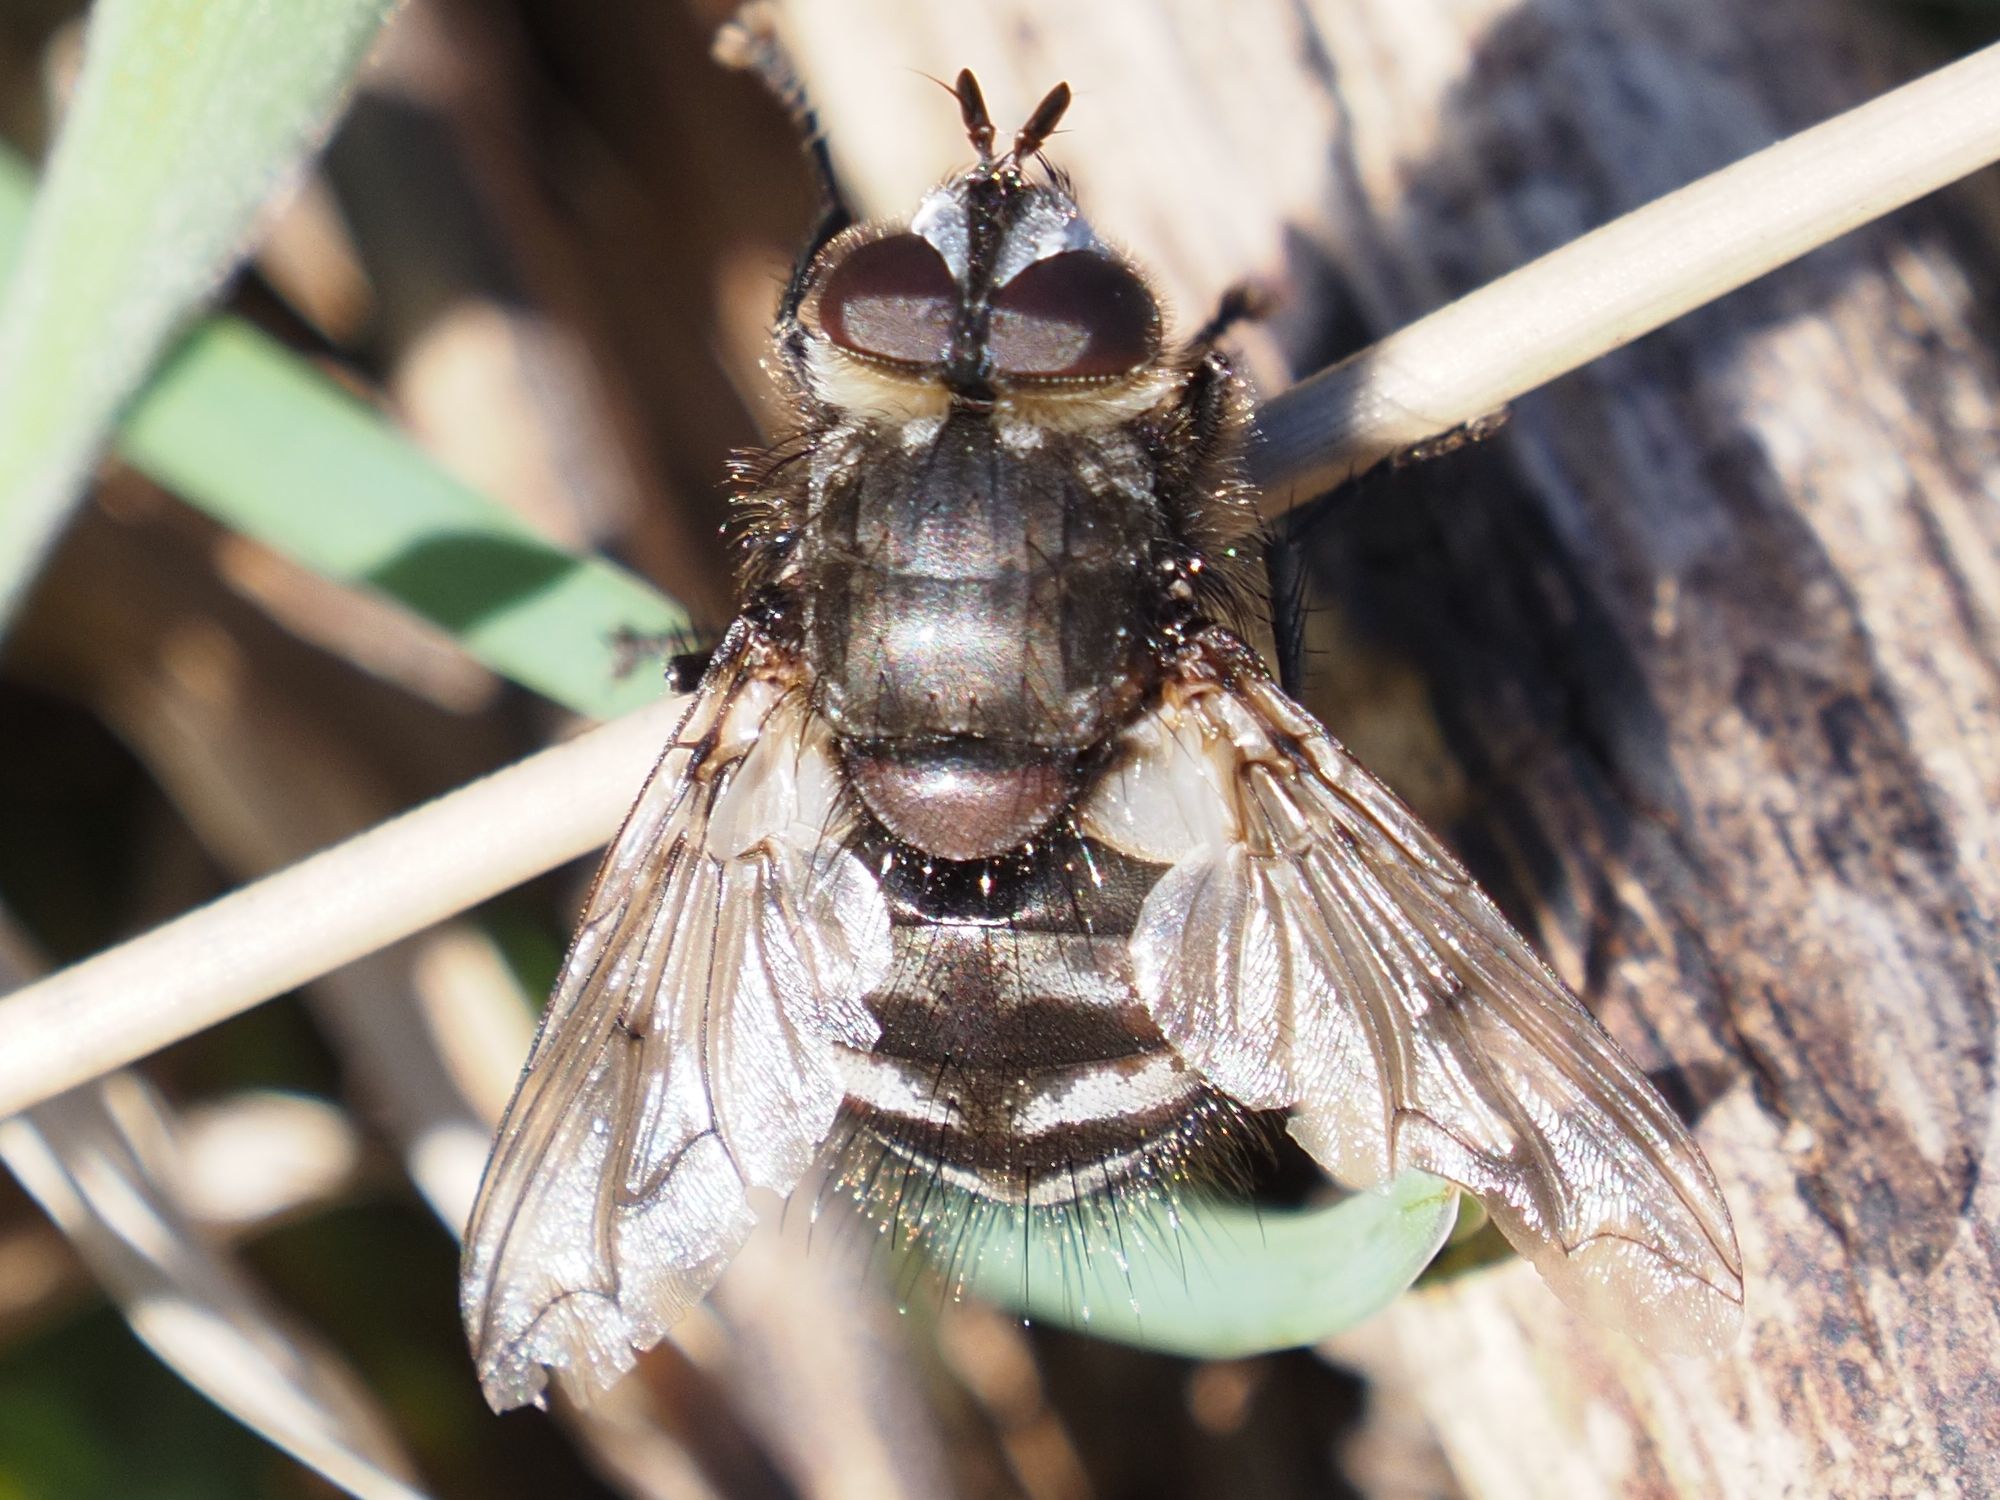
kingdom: Animalia
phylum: Arthropoda
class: Insecta
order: Diptera
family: Tachinidae
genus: Panzeria
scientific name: Panzeria puparum
